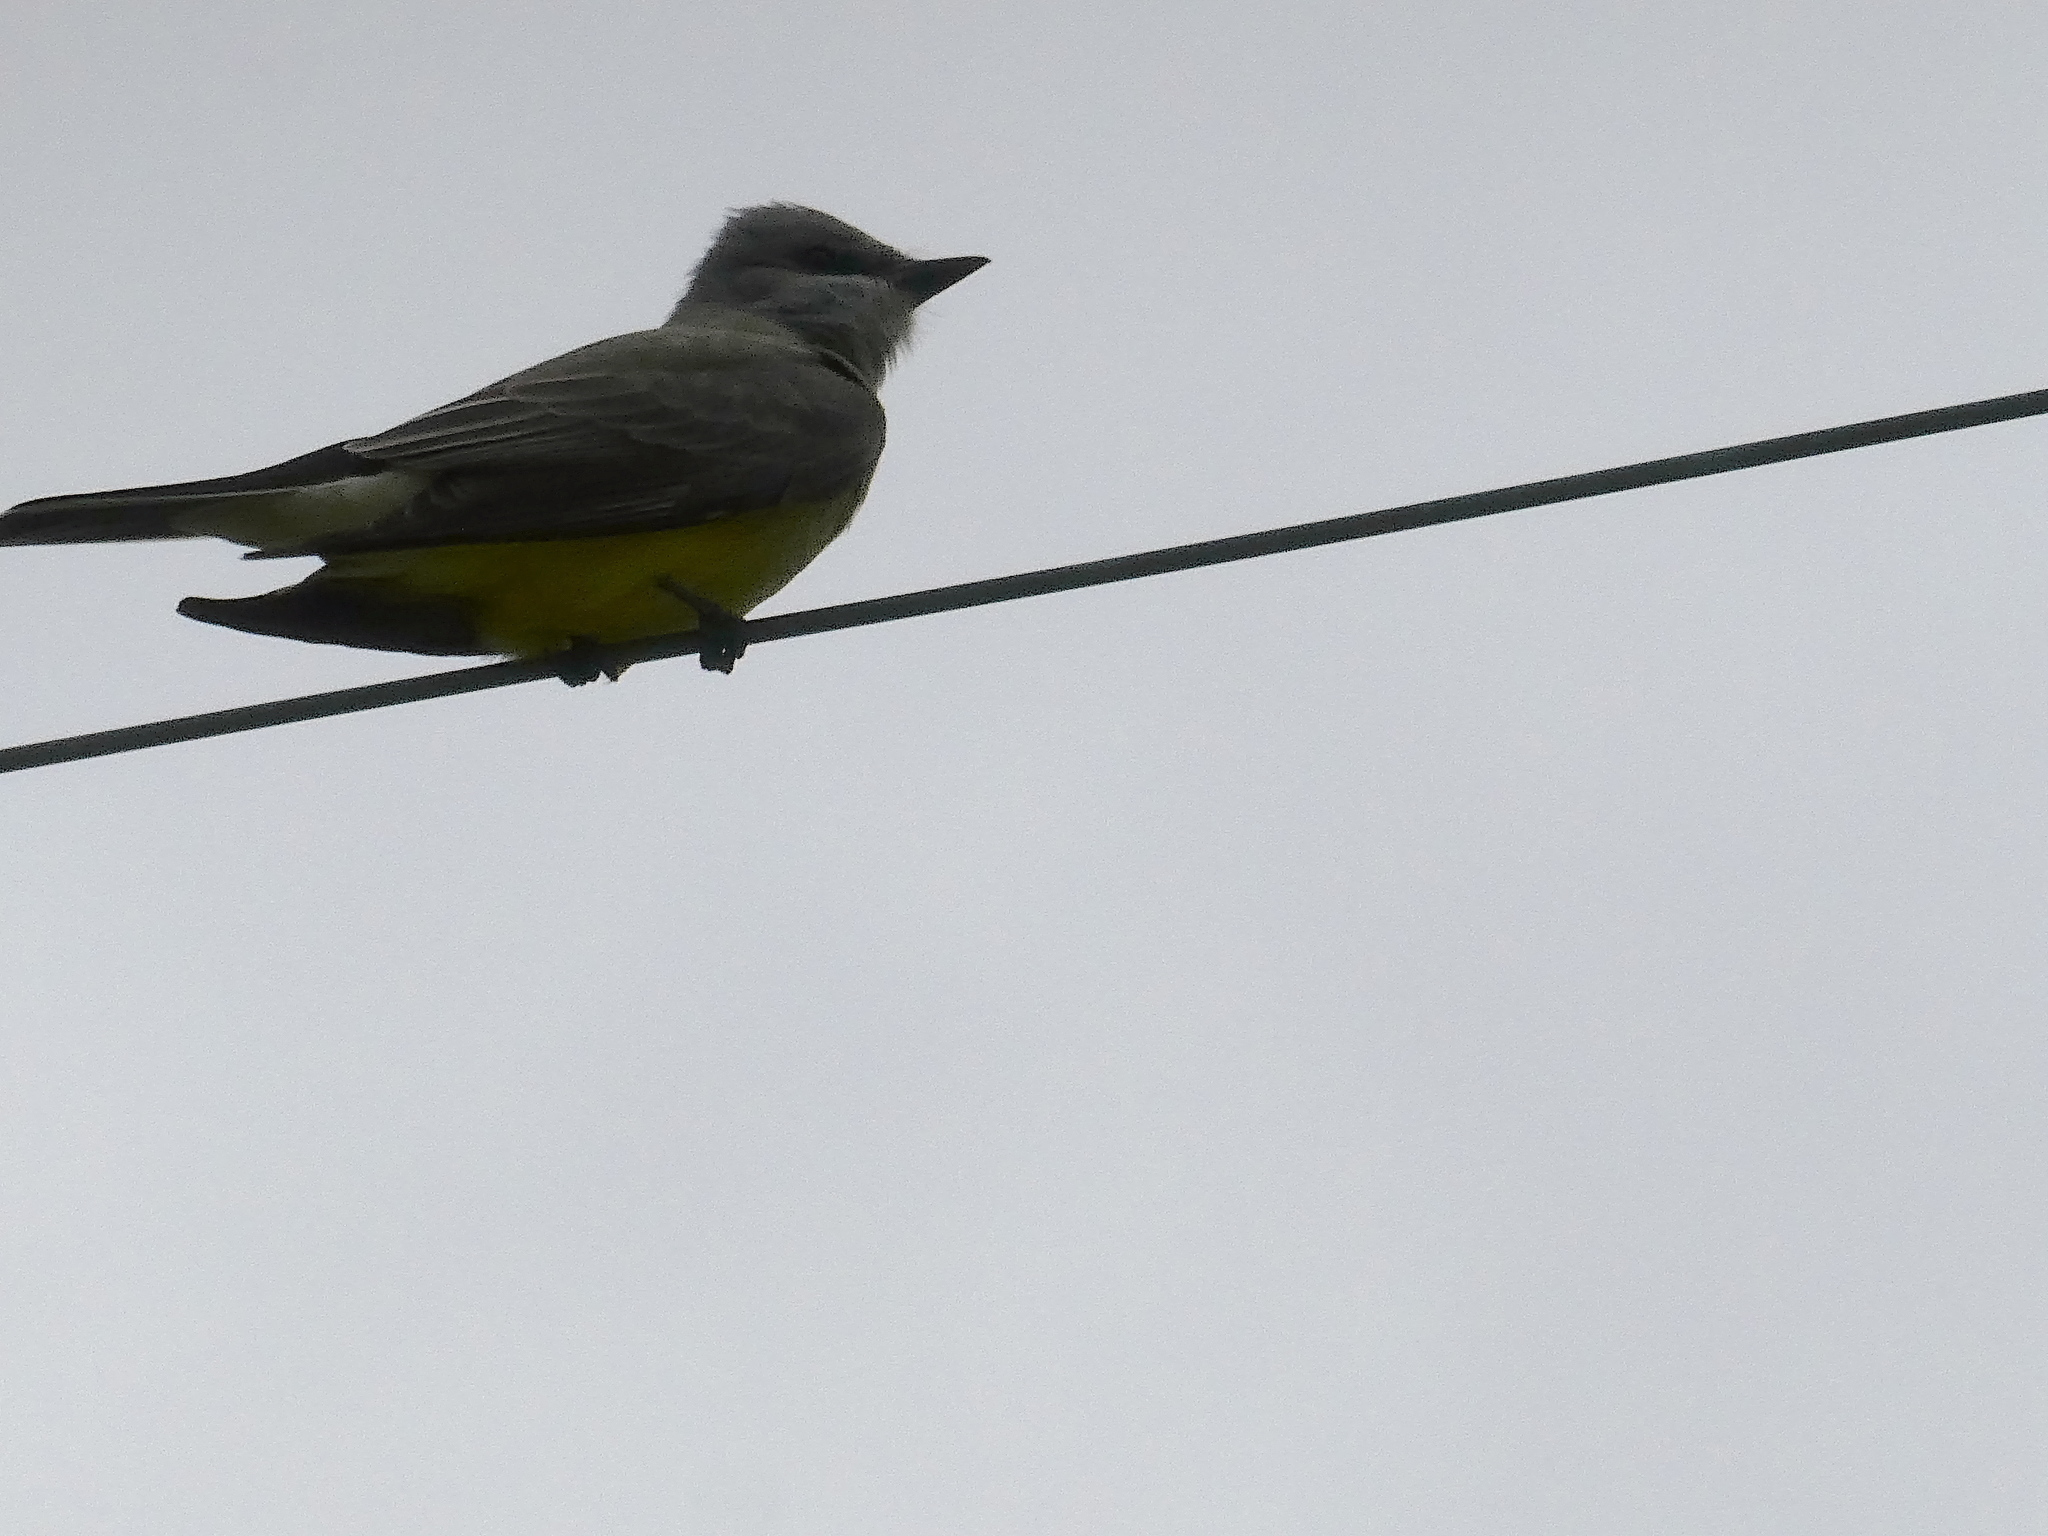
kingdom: Animalia
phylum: Chordata
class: Aves
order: Passeriformes
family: Tyrannidae
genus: Tyrannus
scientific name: Tyrannus verticalis
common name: Western kingbird
